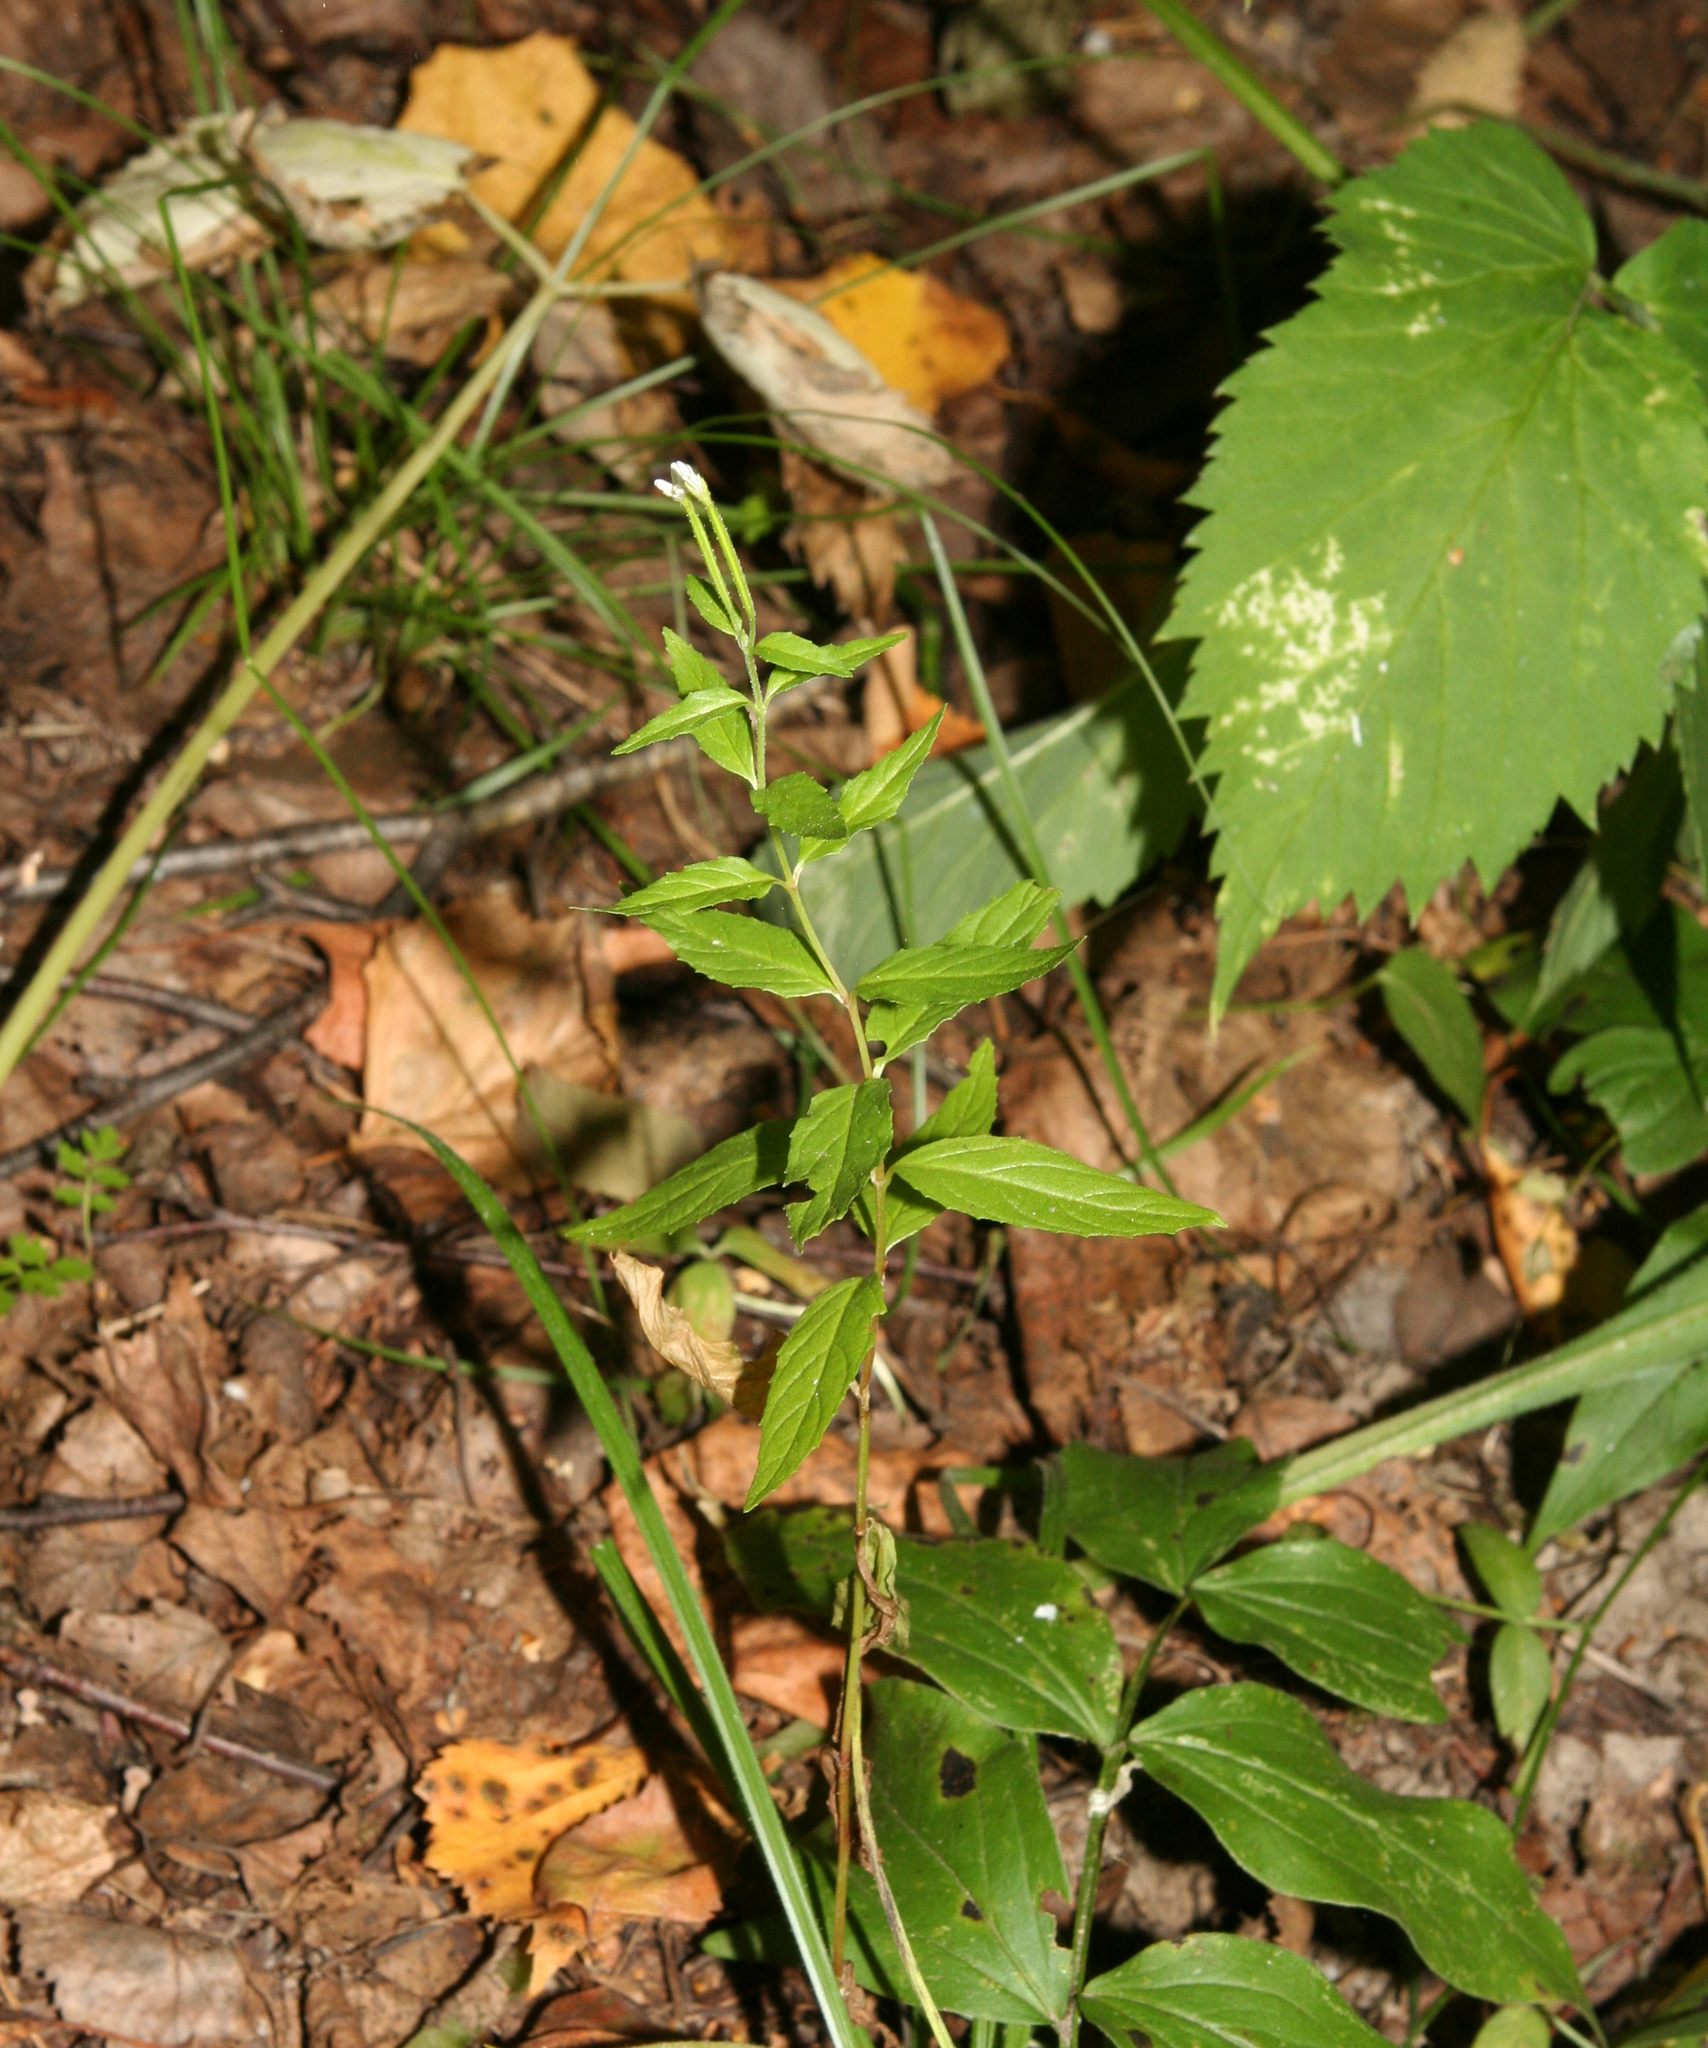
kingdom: Plantae
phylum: Tracheophyta
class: Magnoliopsida
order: Myrtales
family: Onagraceae
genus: Epilobium
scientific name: Epilobium pseudorubescens
